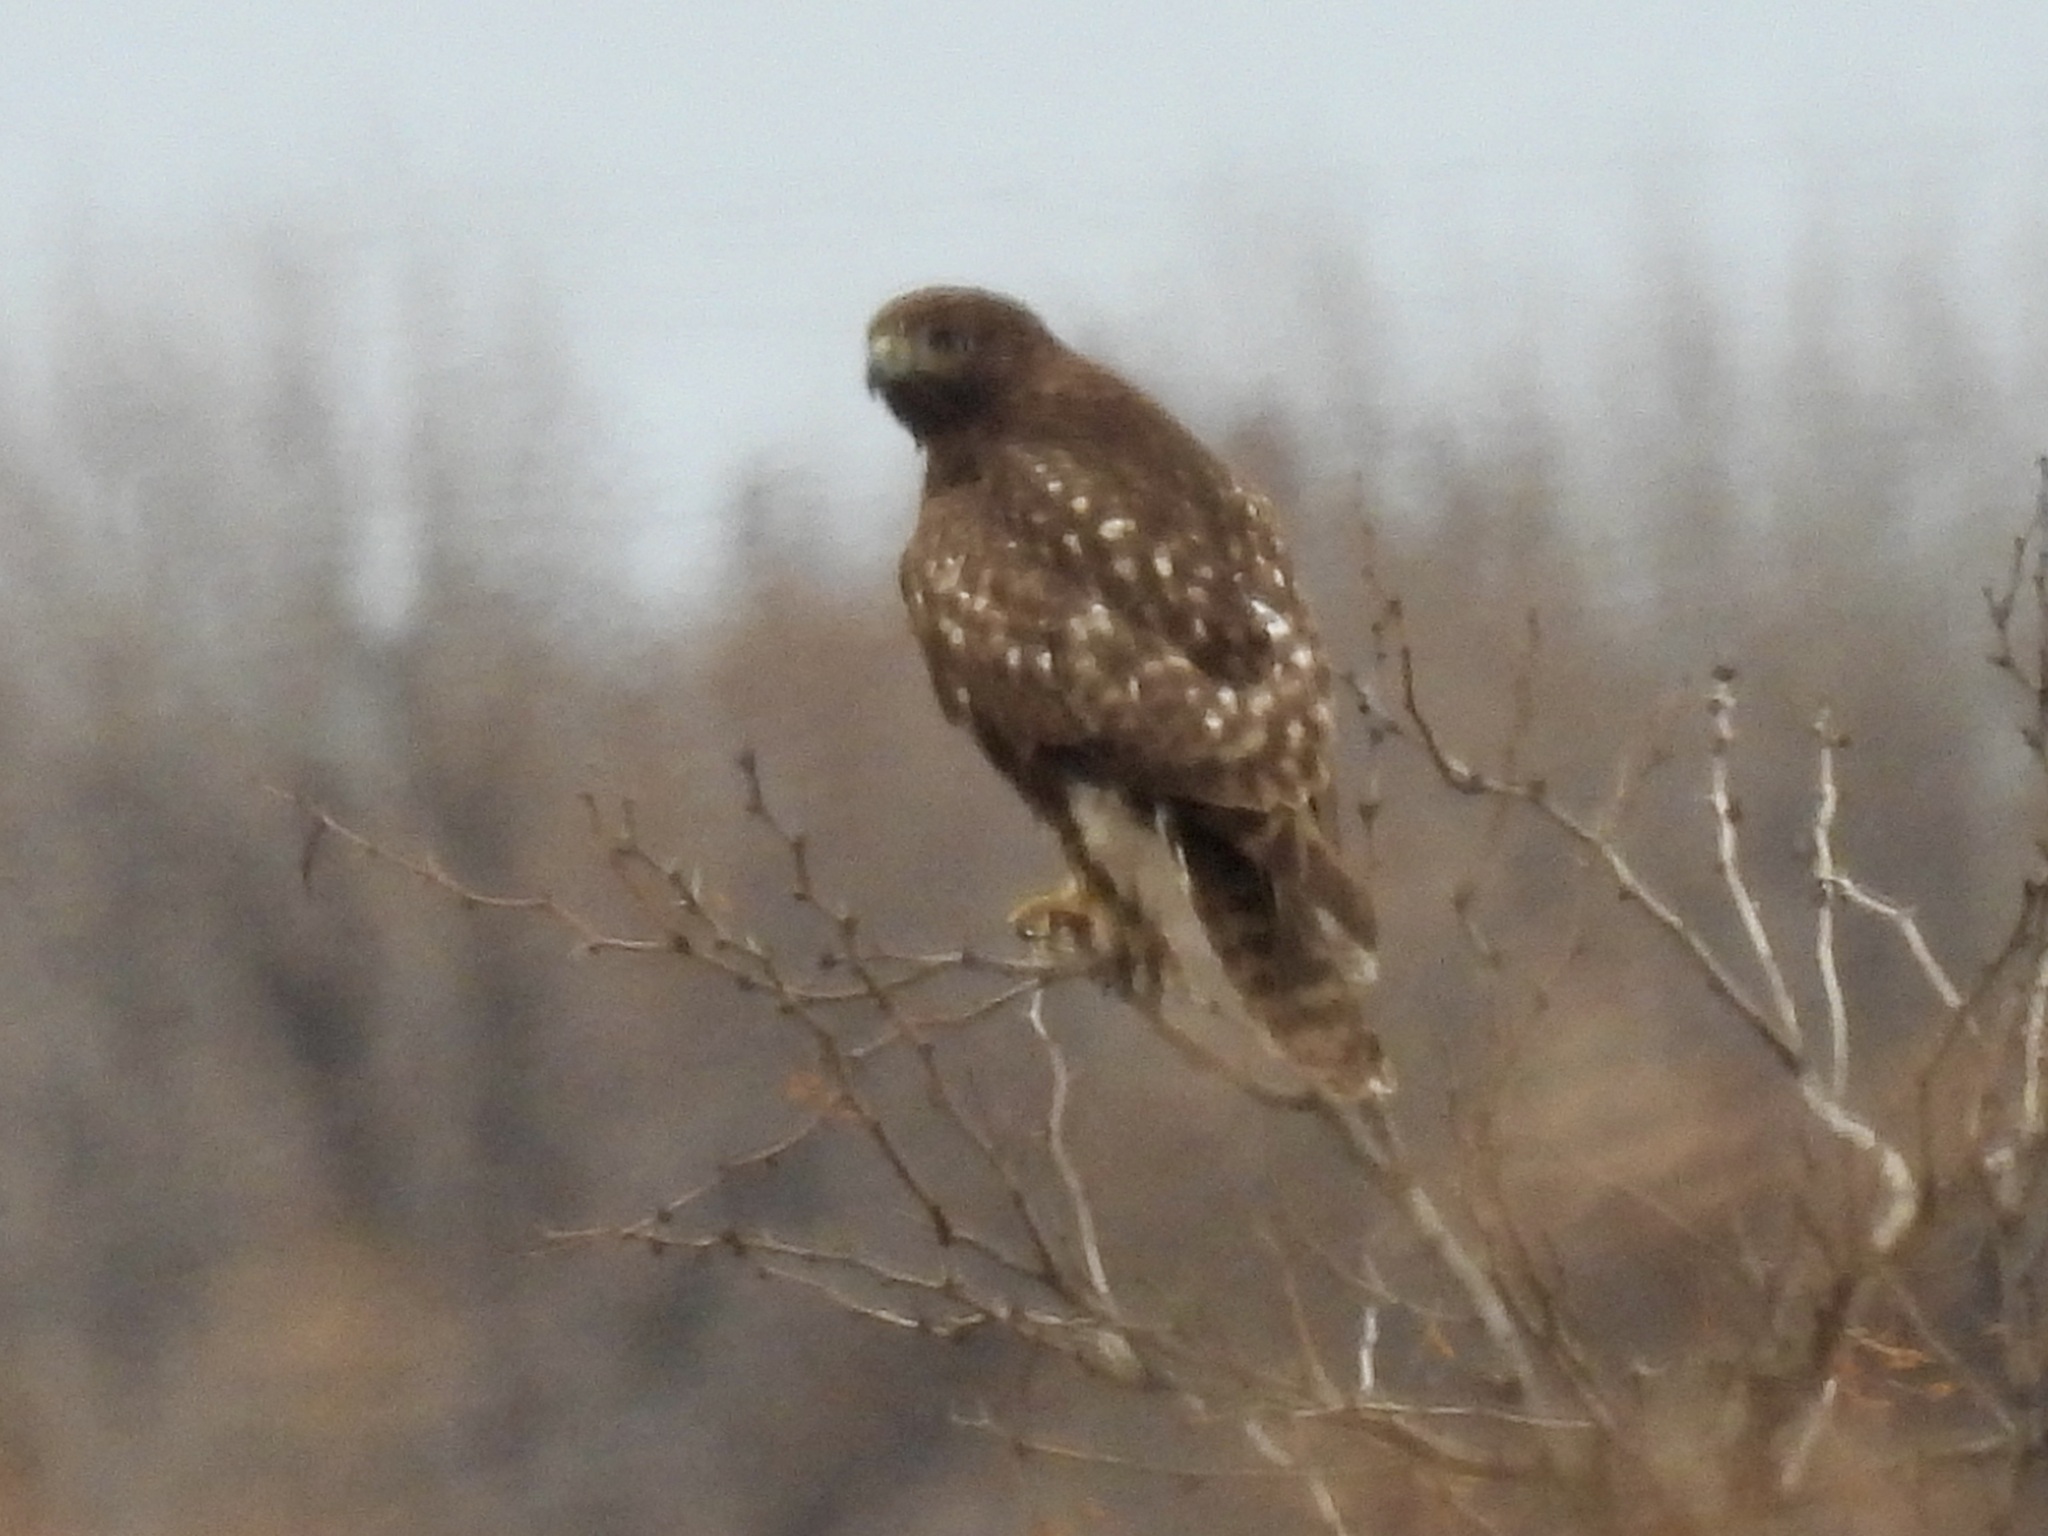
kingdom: Animalia
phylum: Chordata
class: Aves
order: Accipitriformes
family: Accipitridae
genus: Buteo
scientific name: Buteo jamaicensis
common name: Red-tailed hawk
